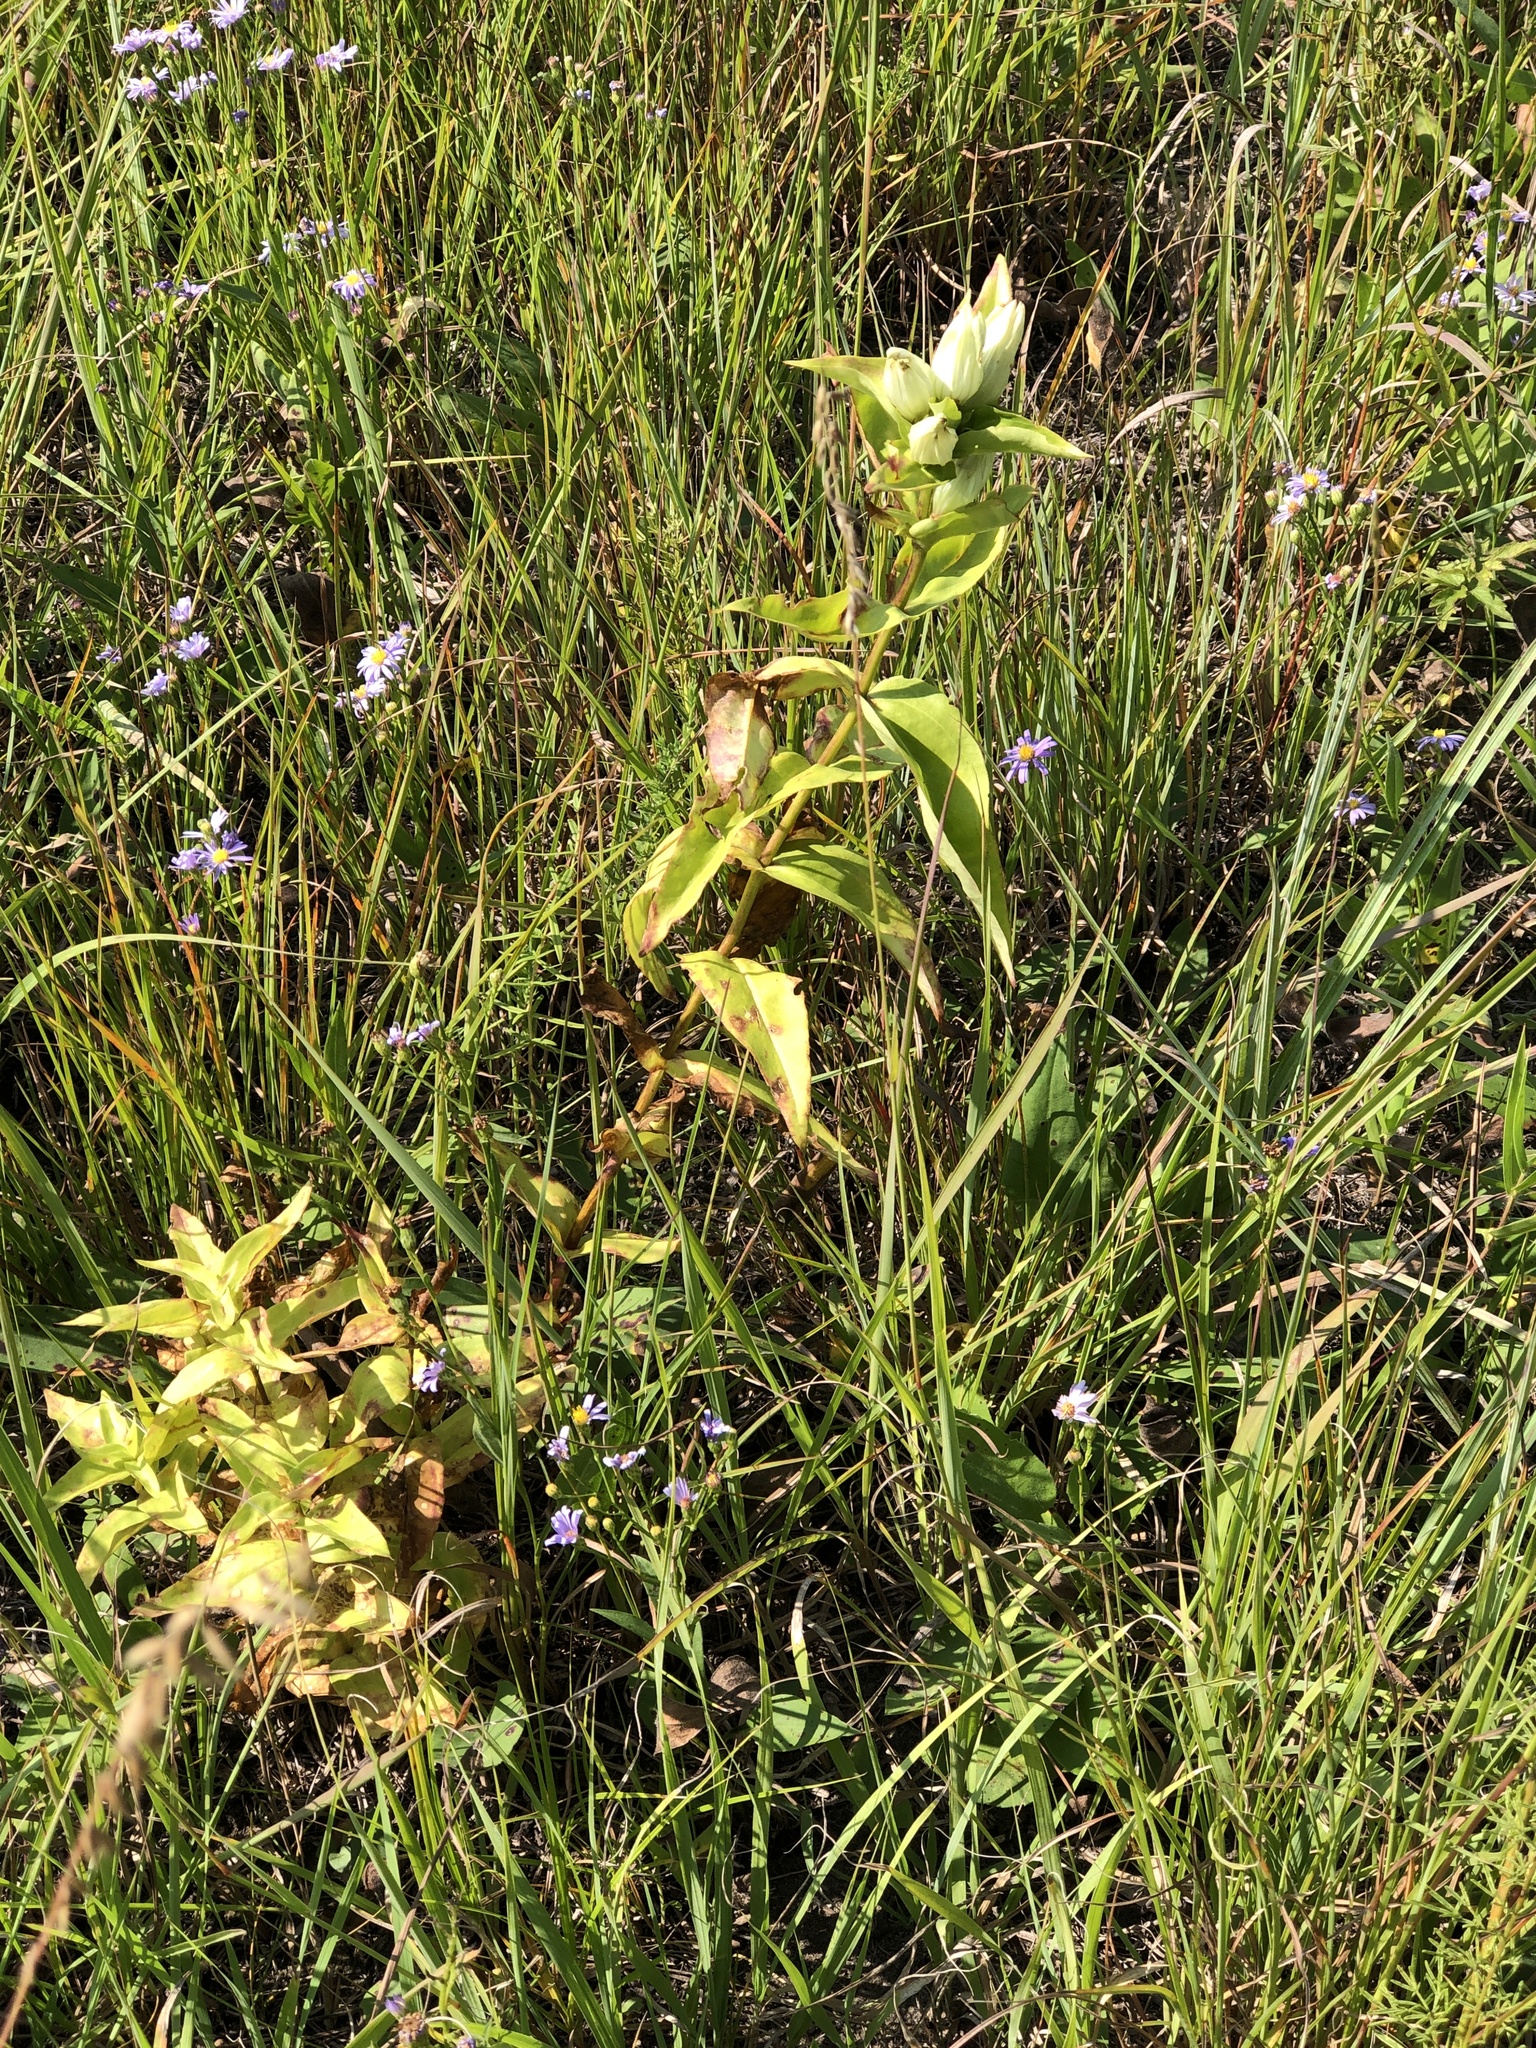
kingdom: Plantae
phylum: Tracheophyta
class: Magnoliopsida
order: Gentianales
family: Gentianaceae
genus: Gentiana
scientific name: Gentiana alba
